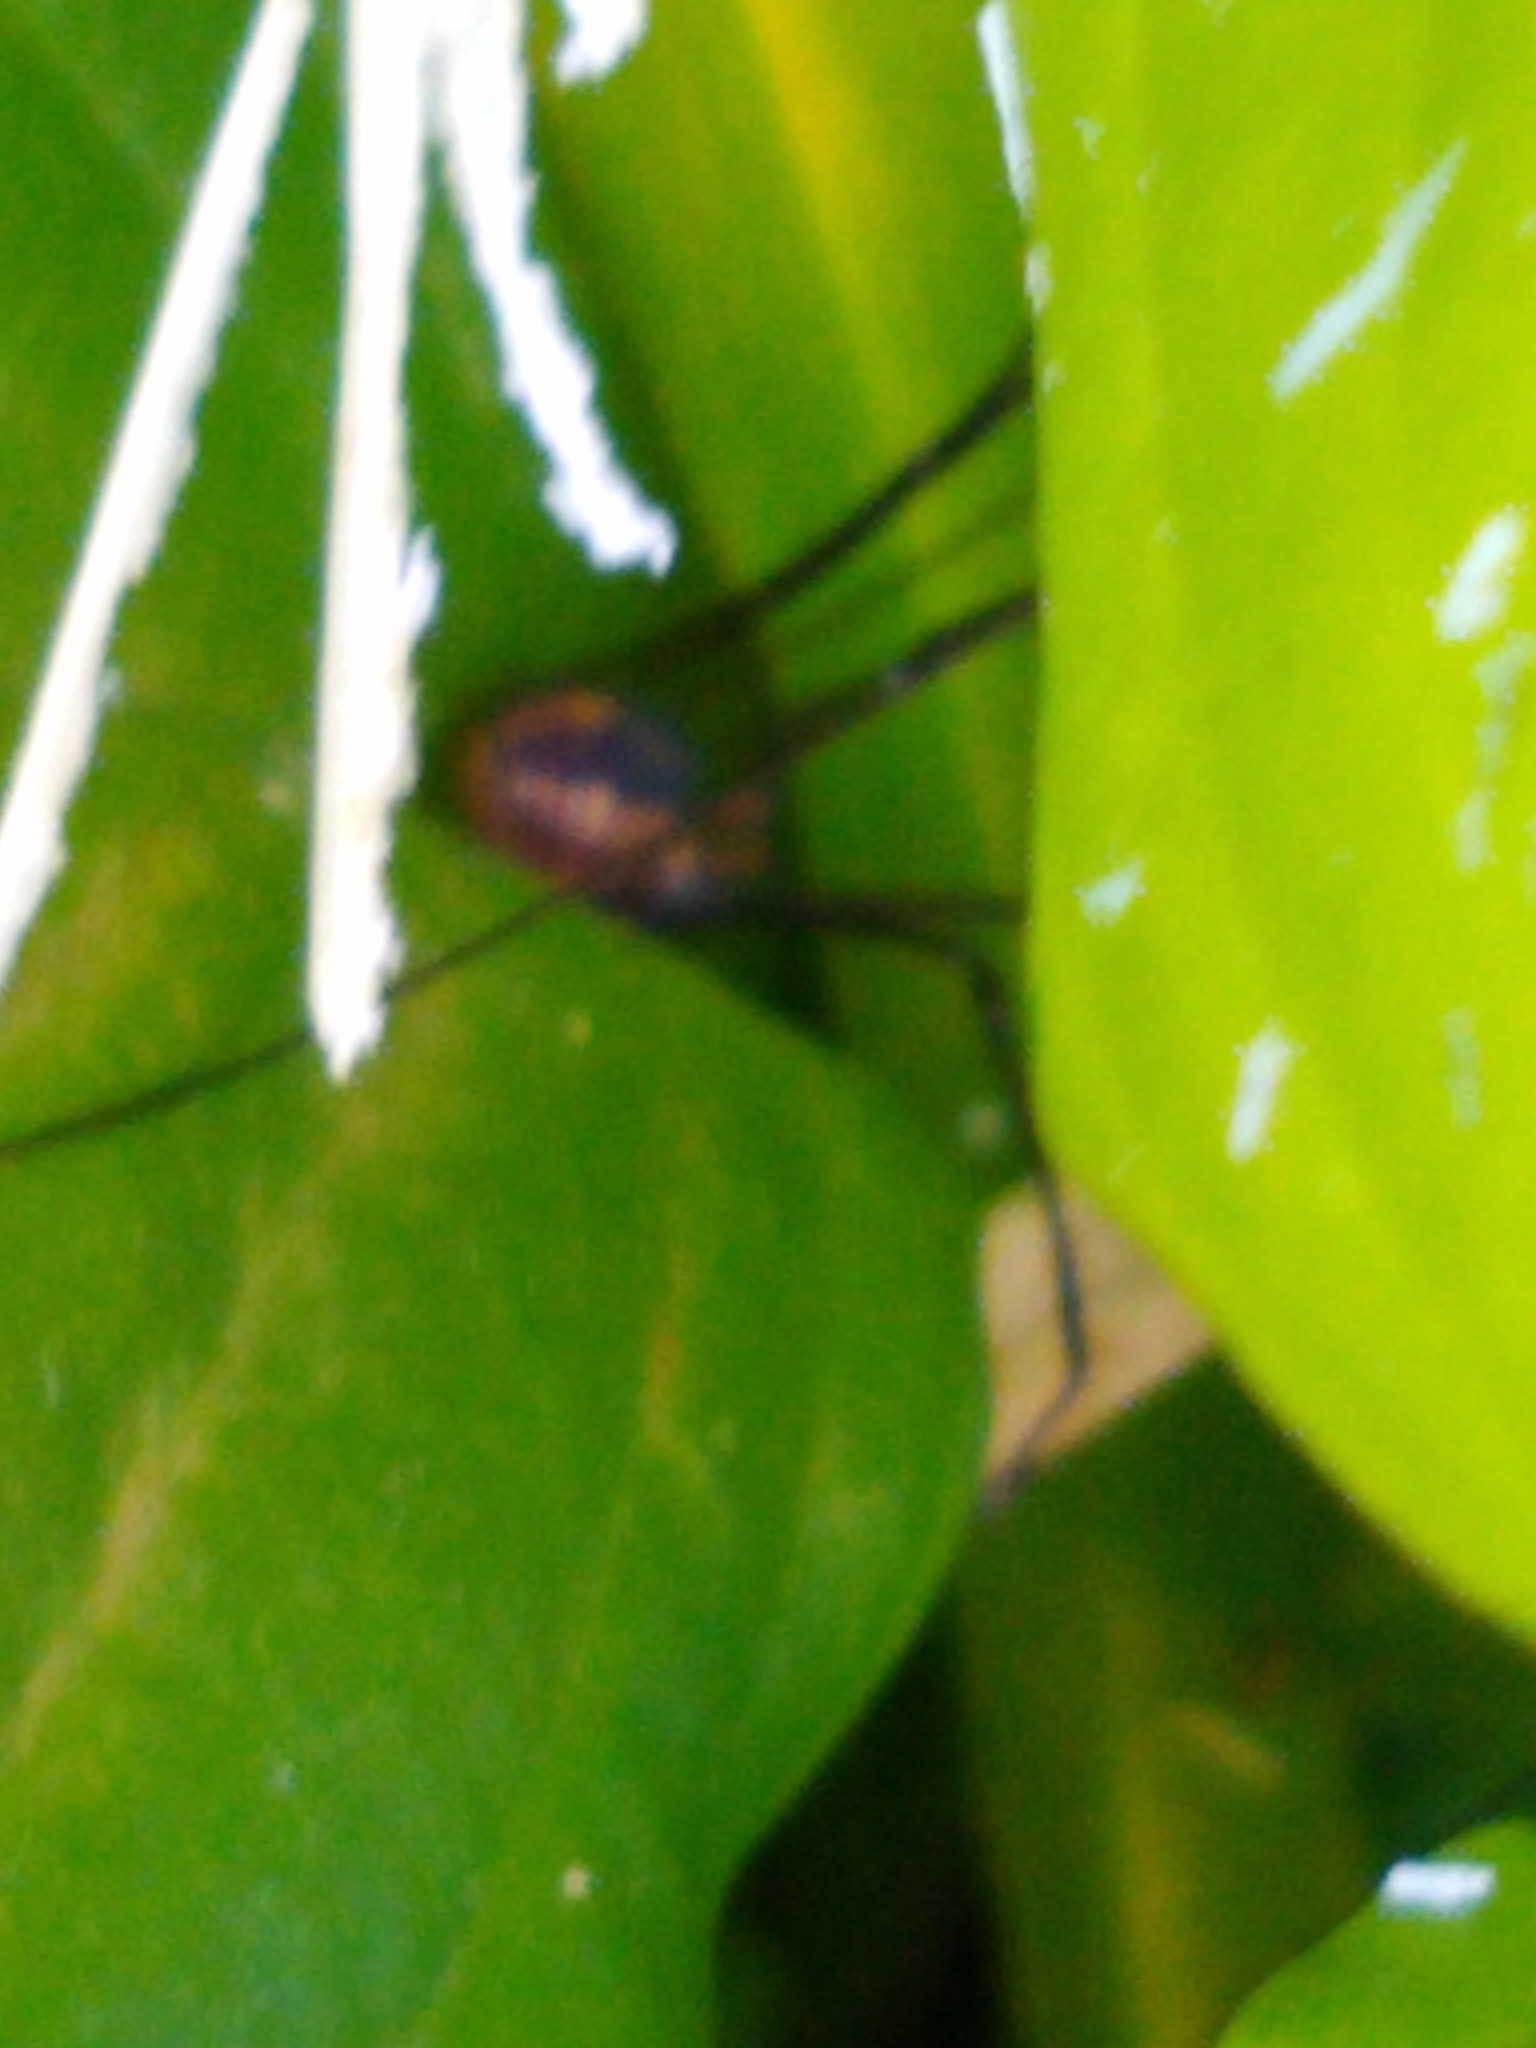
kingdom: Animalia
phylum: Arthropoda
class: Arachnida
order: Opiliones
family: Sclerosomatidae
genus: Leiobunum
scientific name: Leiobunum vittatum
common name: Eastern harvestman
